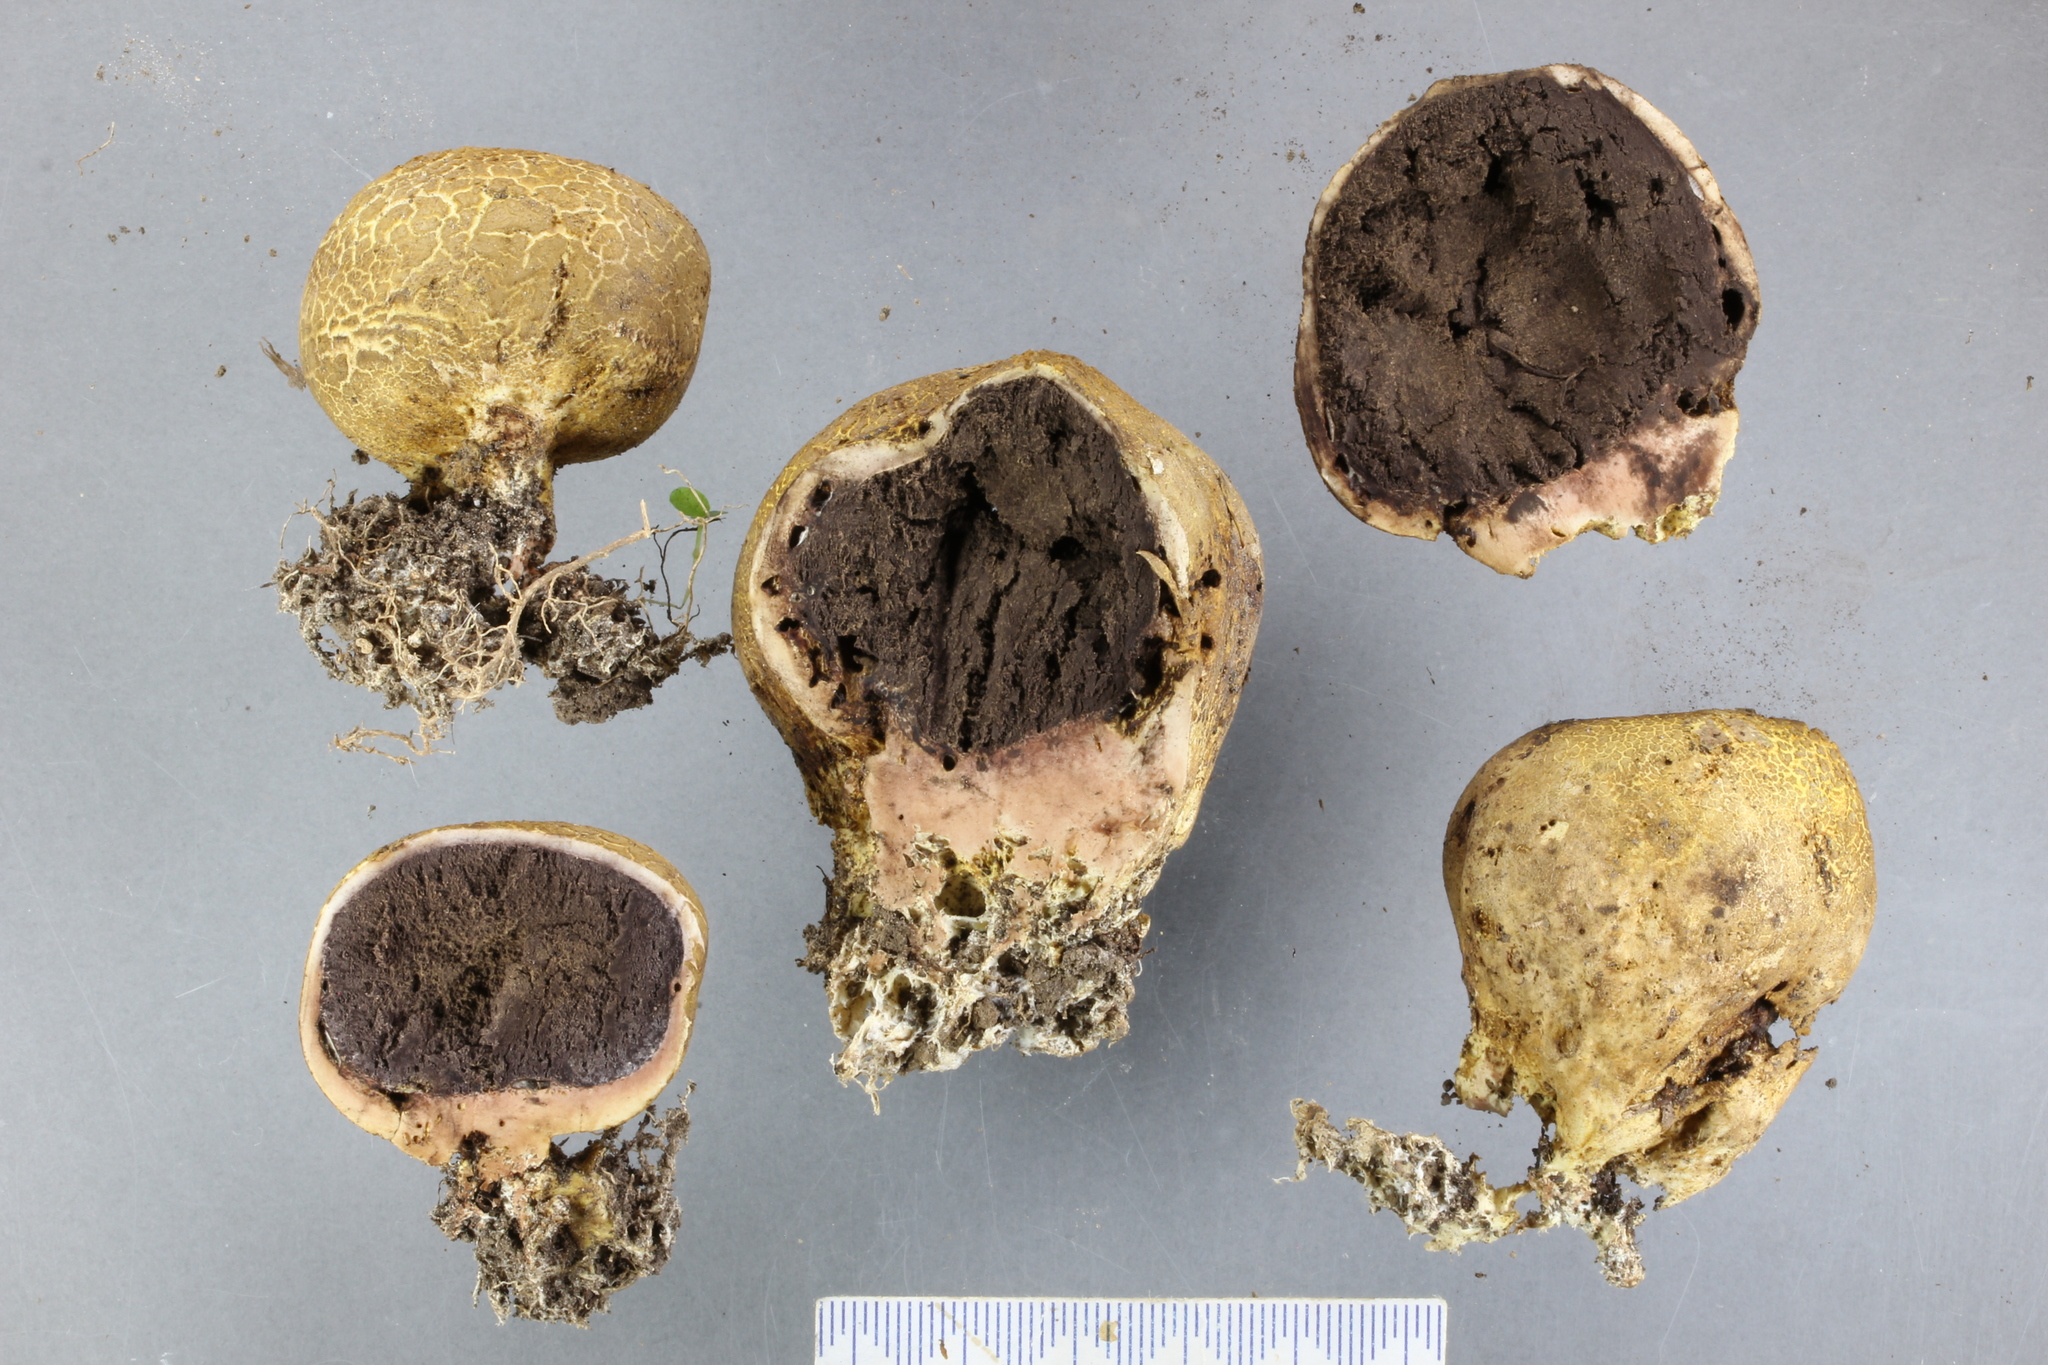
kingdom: Fungi
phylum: Basidiomycota
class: Agaricomycetes
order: Boletales
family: Sclerodermataceae
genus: Scleroderma
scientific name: Scleroderma
